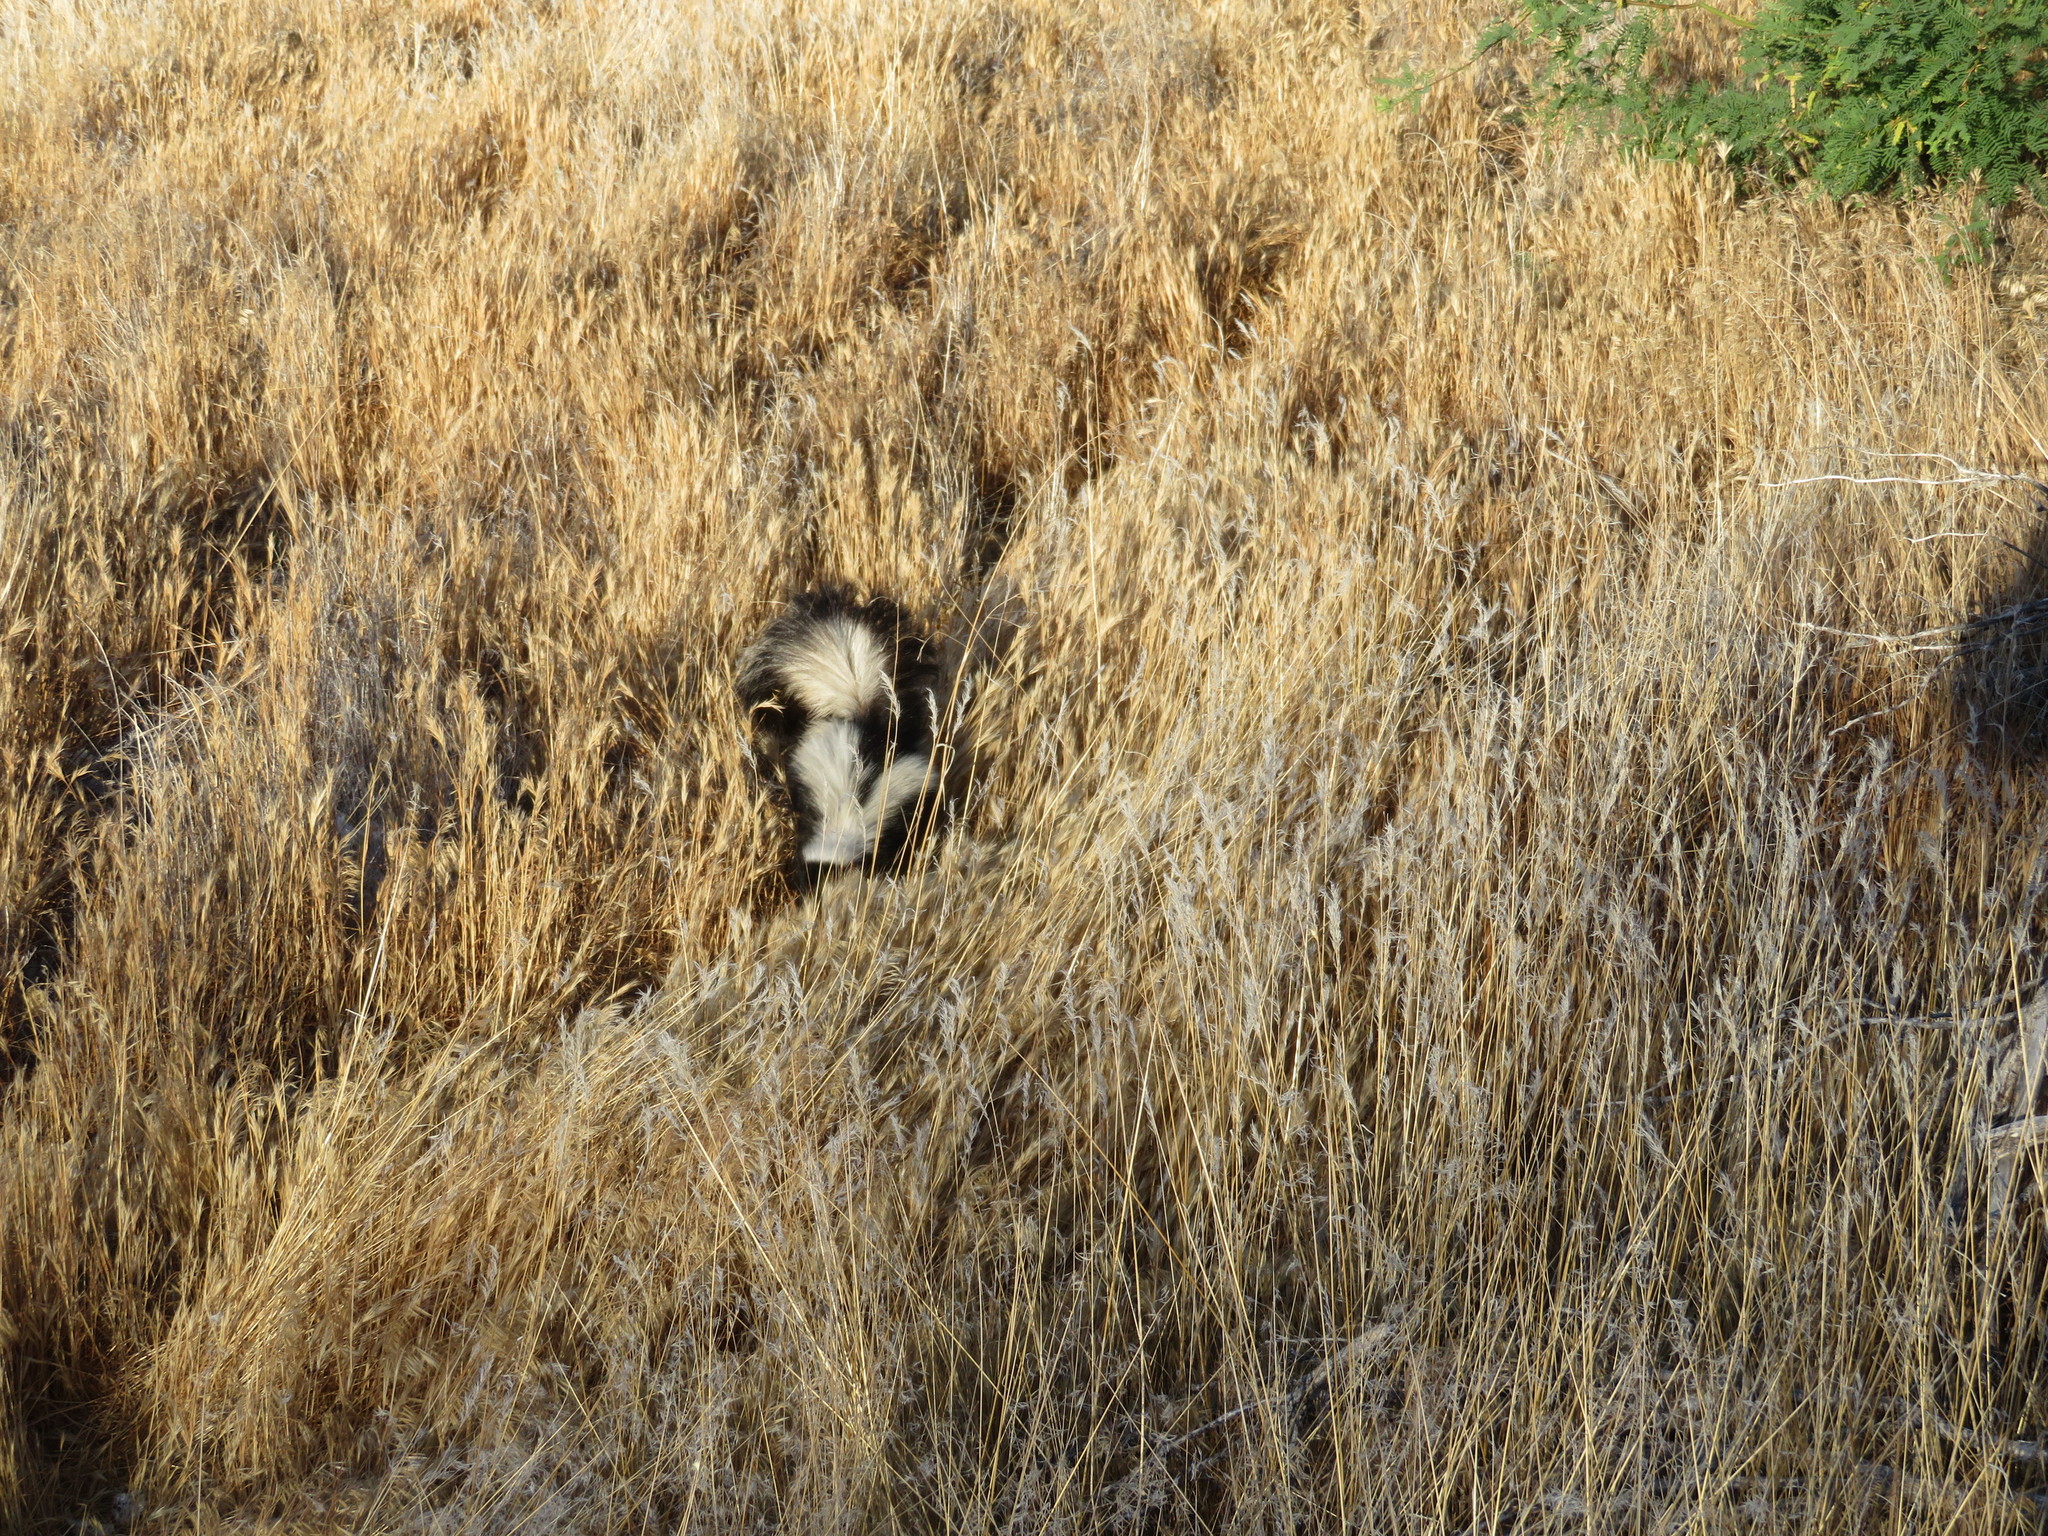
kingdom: Animalia
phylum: Chordata
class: Mammalia
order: Carnivora
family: Mephitidae
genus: Mephitis
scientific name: Mephitis mephitis
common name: Striped skunk
